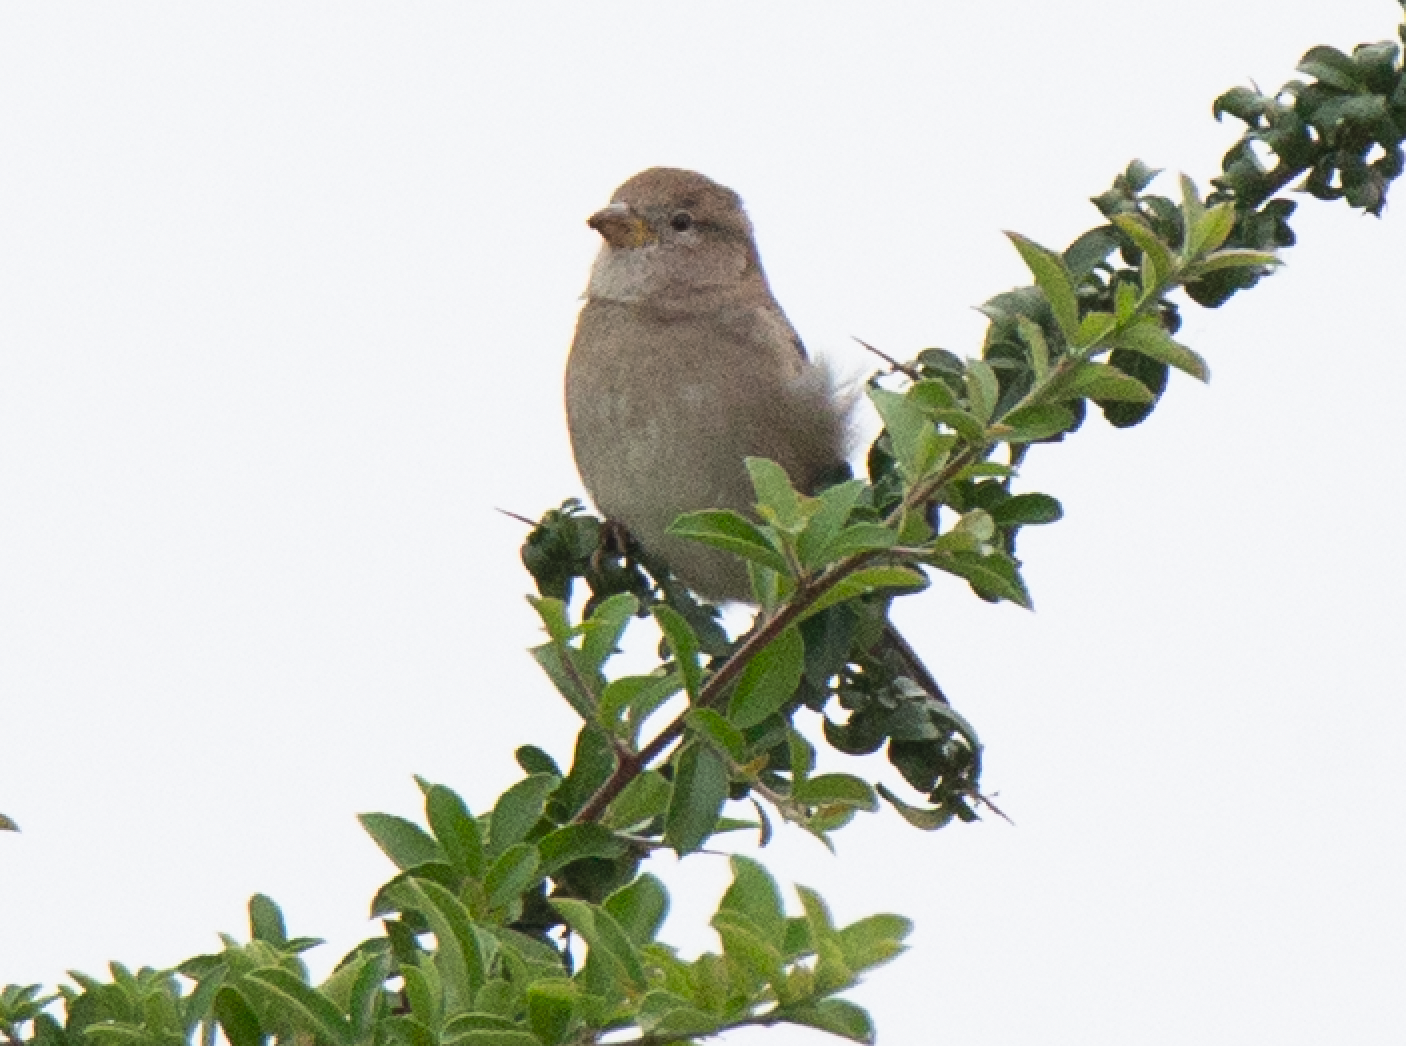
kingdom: Animalia
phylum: Chordata
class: Aves
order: Passeriformes
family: Passeridae
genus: Passer
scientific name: Passer italiae
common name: Italian sparrow
